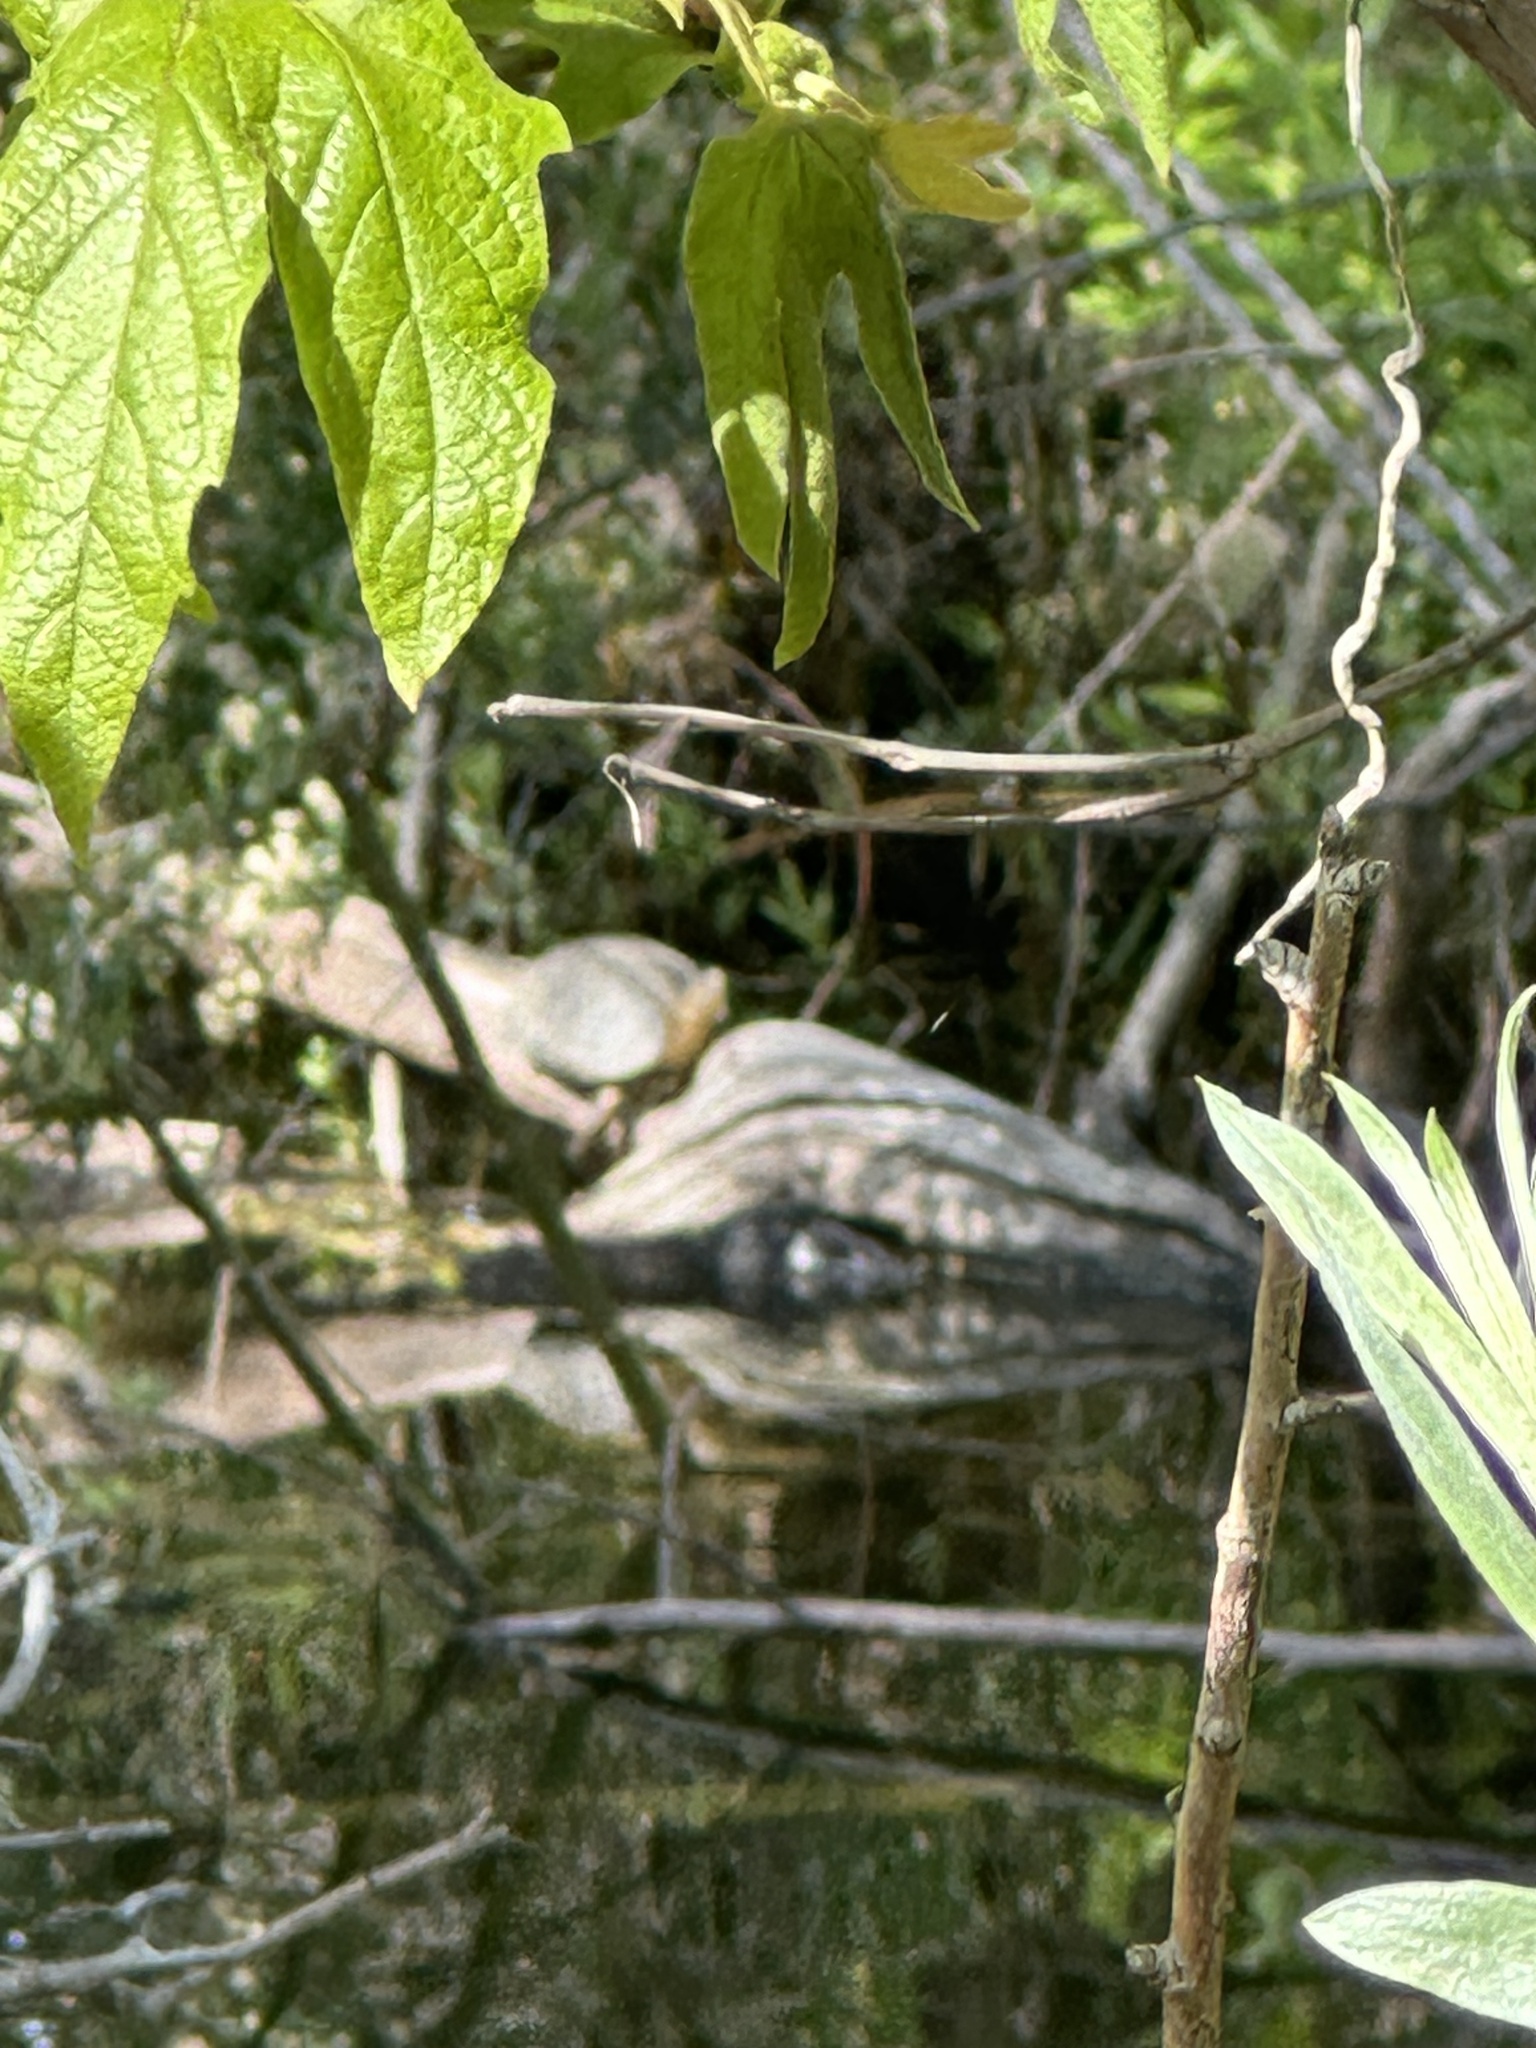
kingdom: Animalia
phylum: Chordata
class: Testudines
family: Emydidae
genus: Actinemys
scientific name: Actinemys marmorata
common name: Western pond turtle
